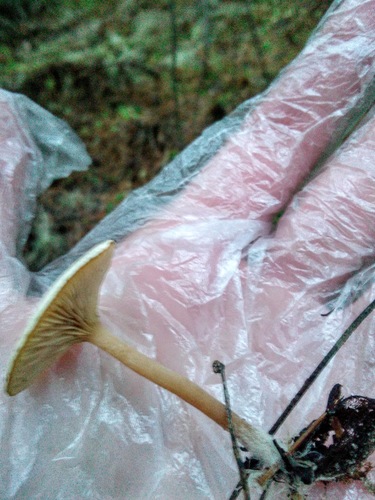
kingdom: Fungi
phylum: Basidiomycota
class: Agaricomycetes
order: Agaricales
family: Tricholomataceae
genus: Clitocybe
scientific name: Clitocybe
